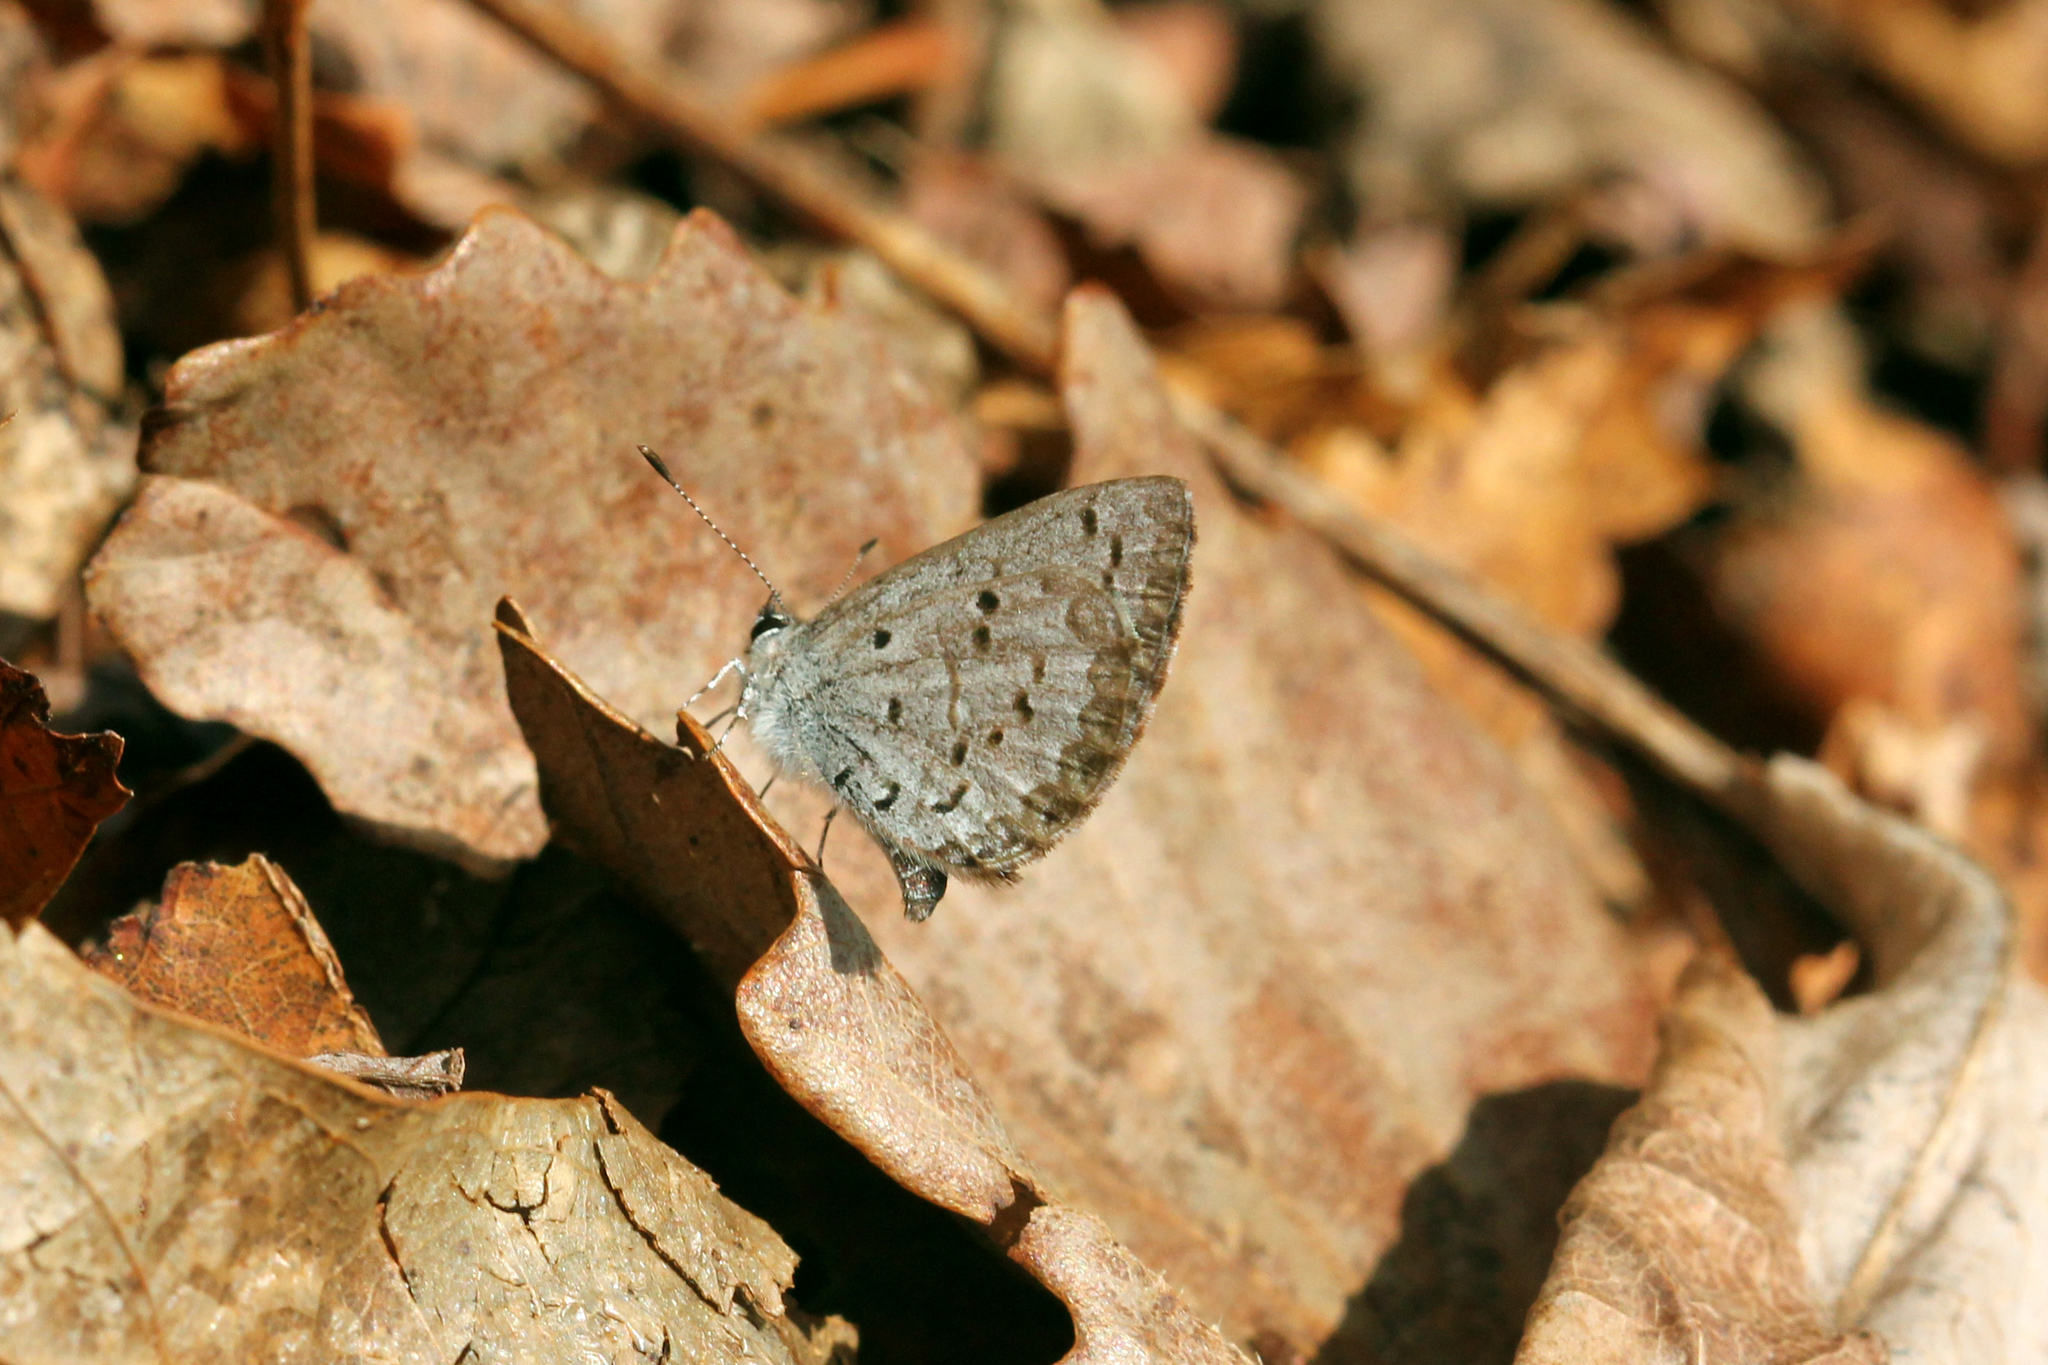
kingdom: Animalia
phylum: Arthropoda
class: Insecta
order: Lepidoptera
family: Lycaenidae
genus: Celastrina
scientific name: Celastrina ladon
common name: Spring azure
